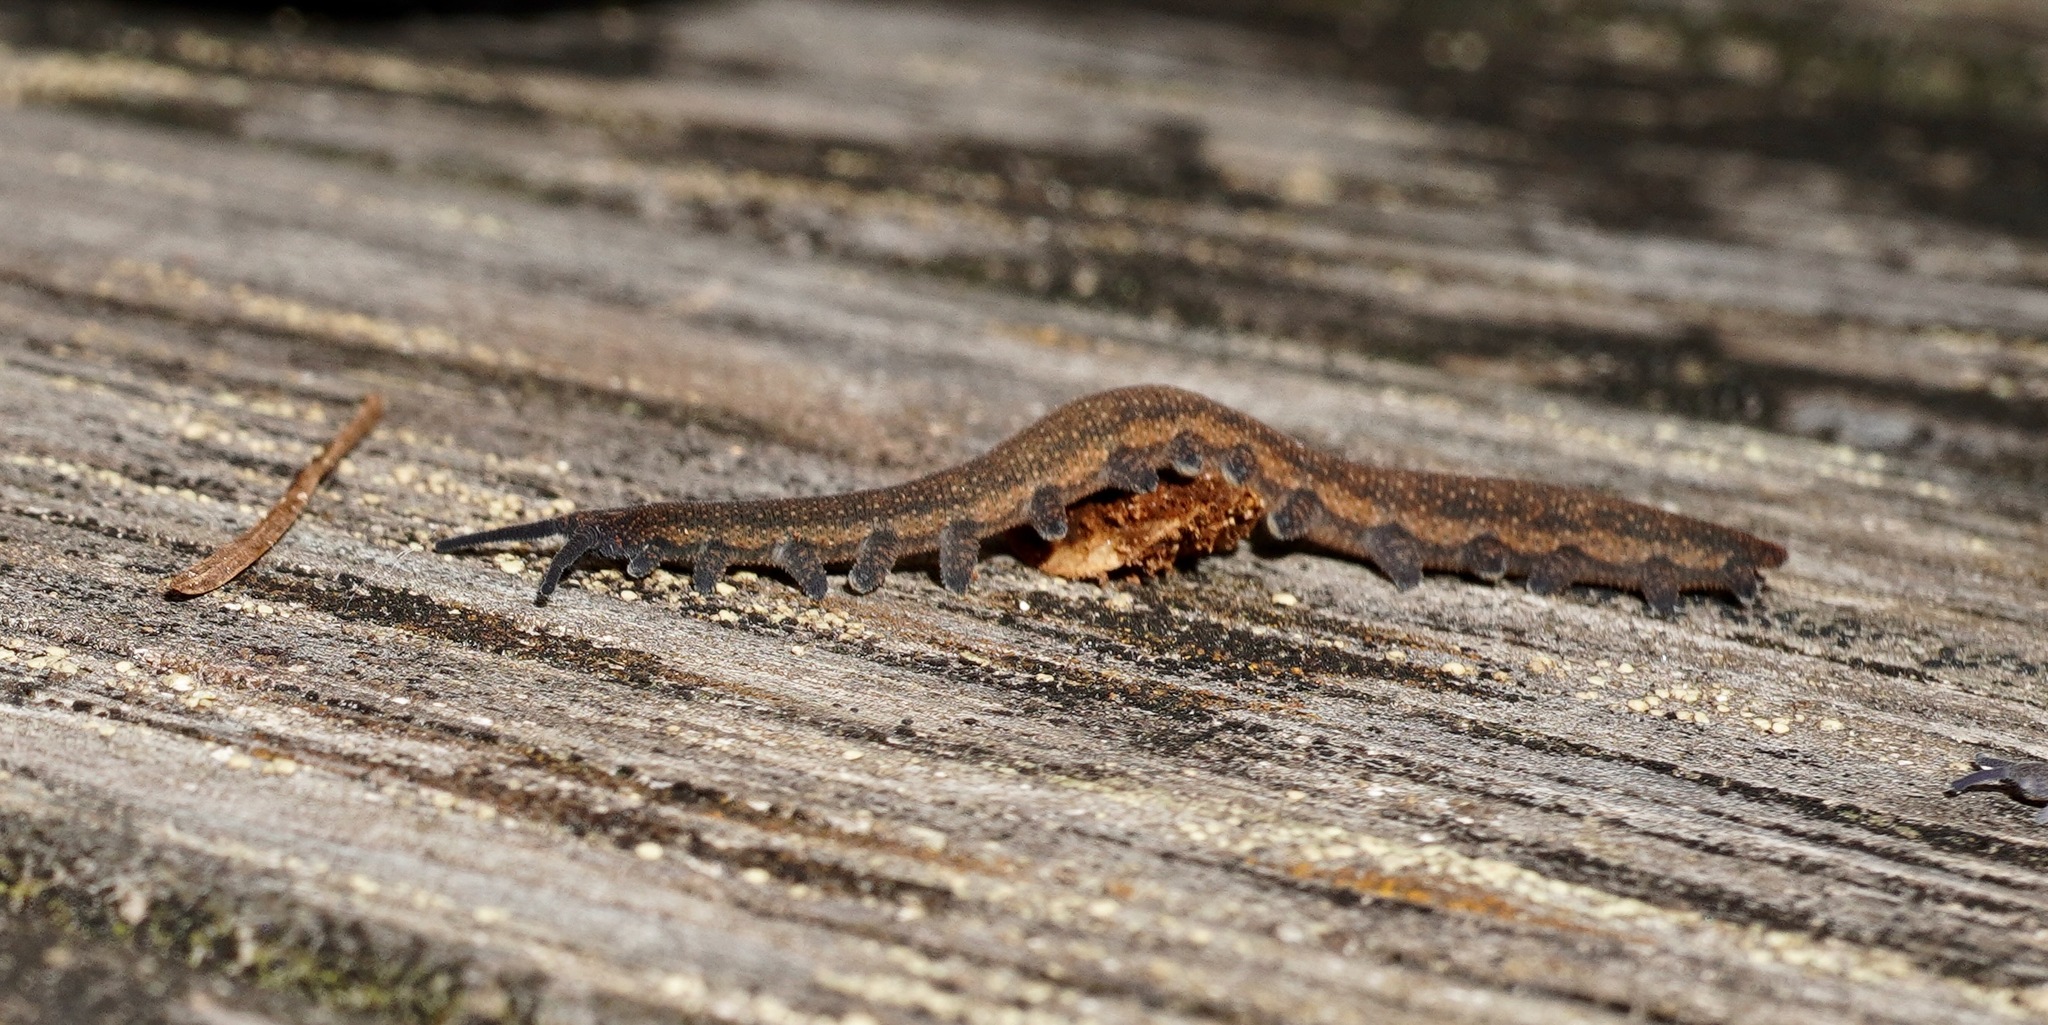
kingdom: Animalia
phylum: Onychophora
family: Peripatopsidae
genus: Peripatoides
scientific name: Peripatoides
